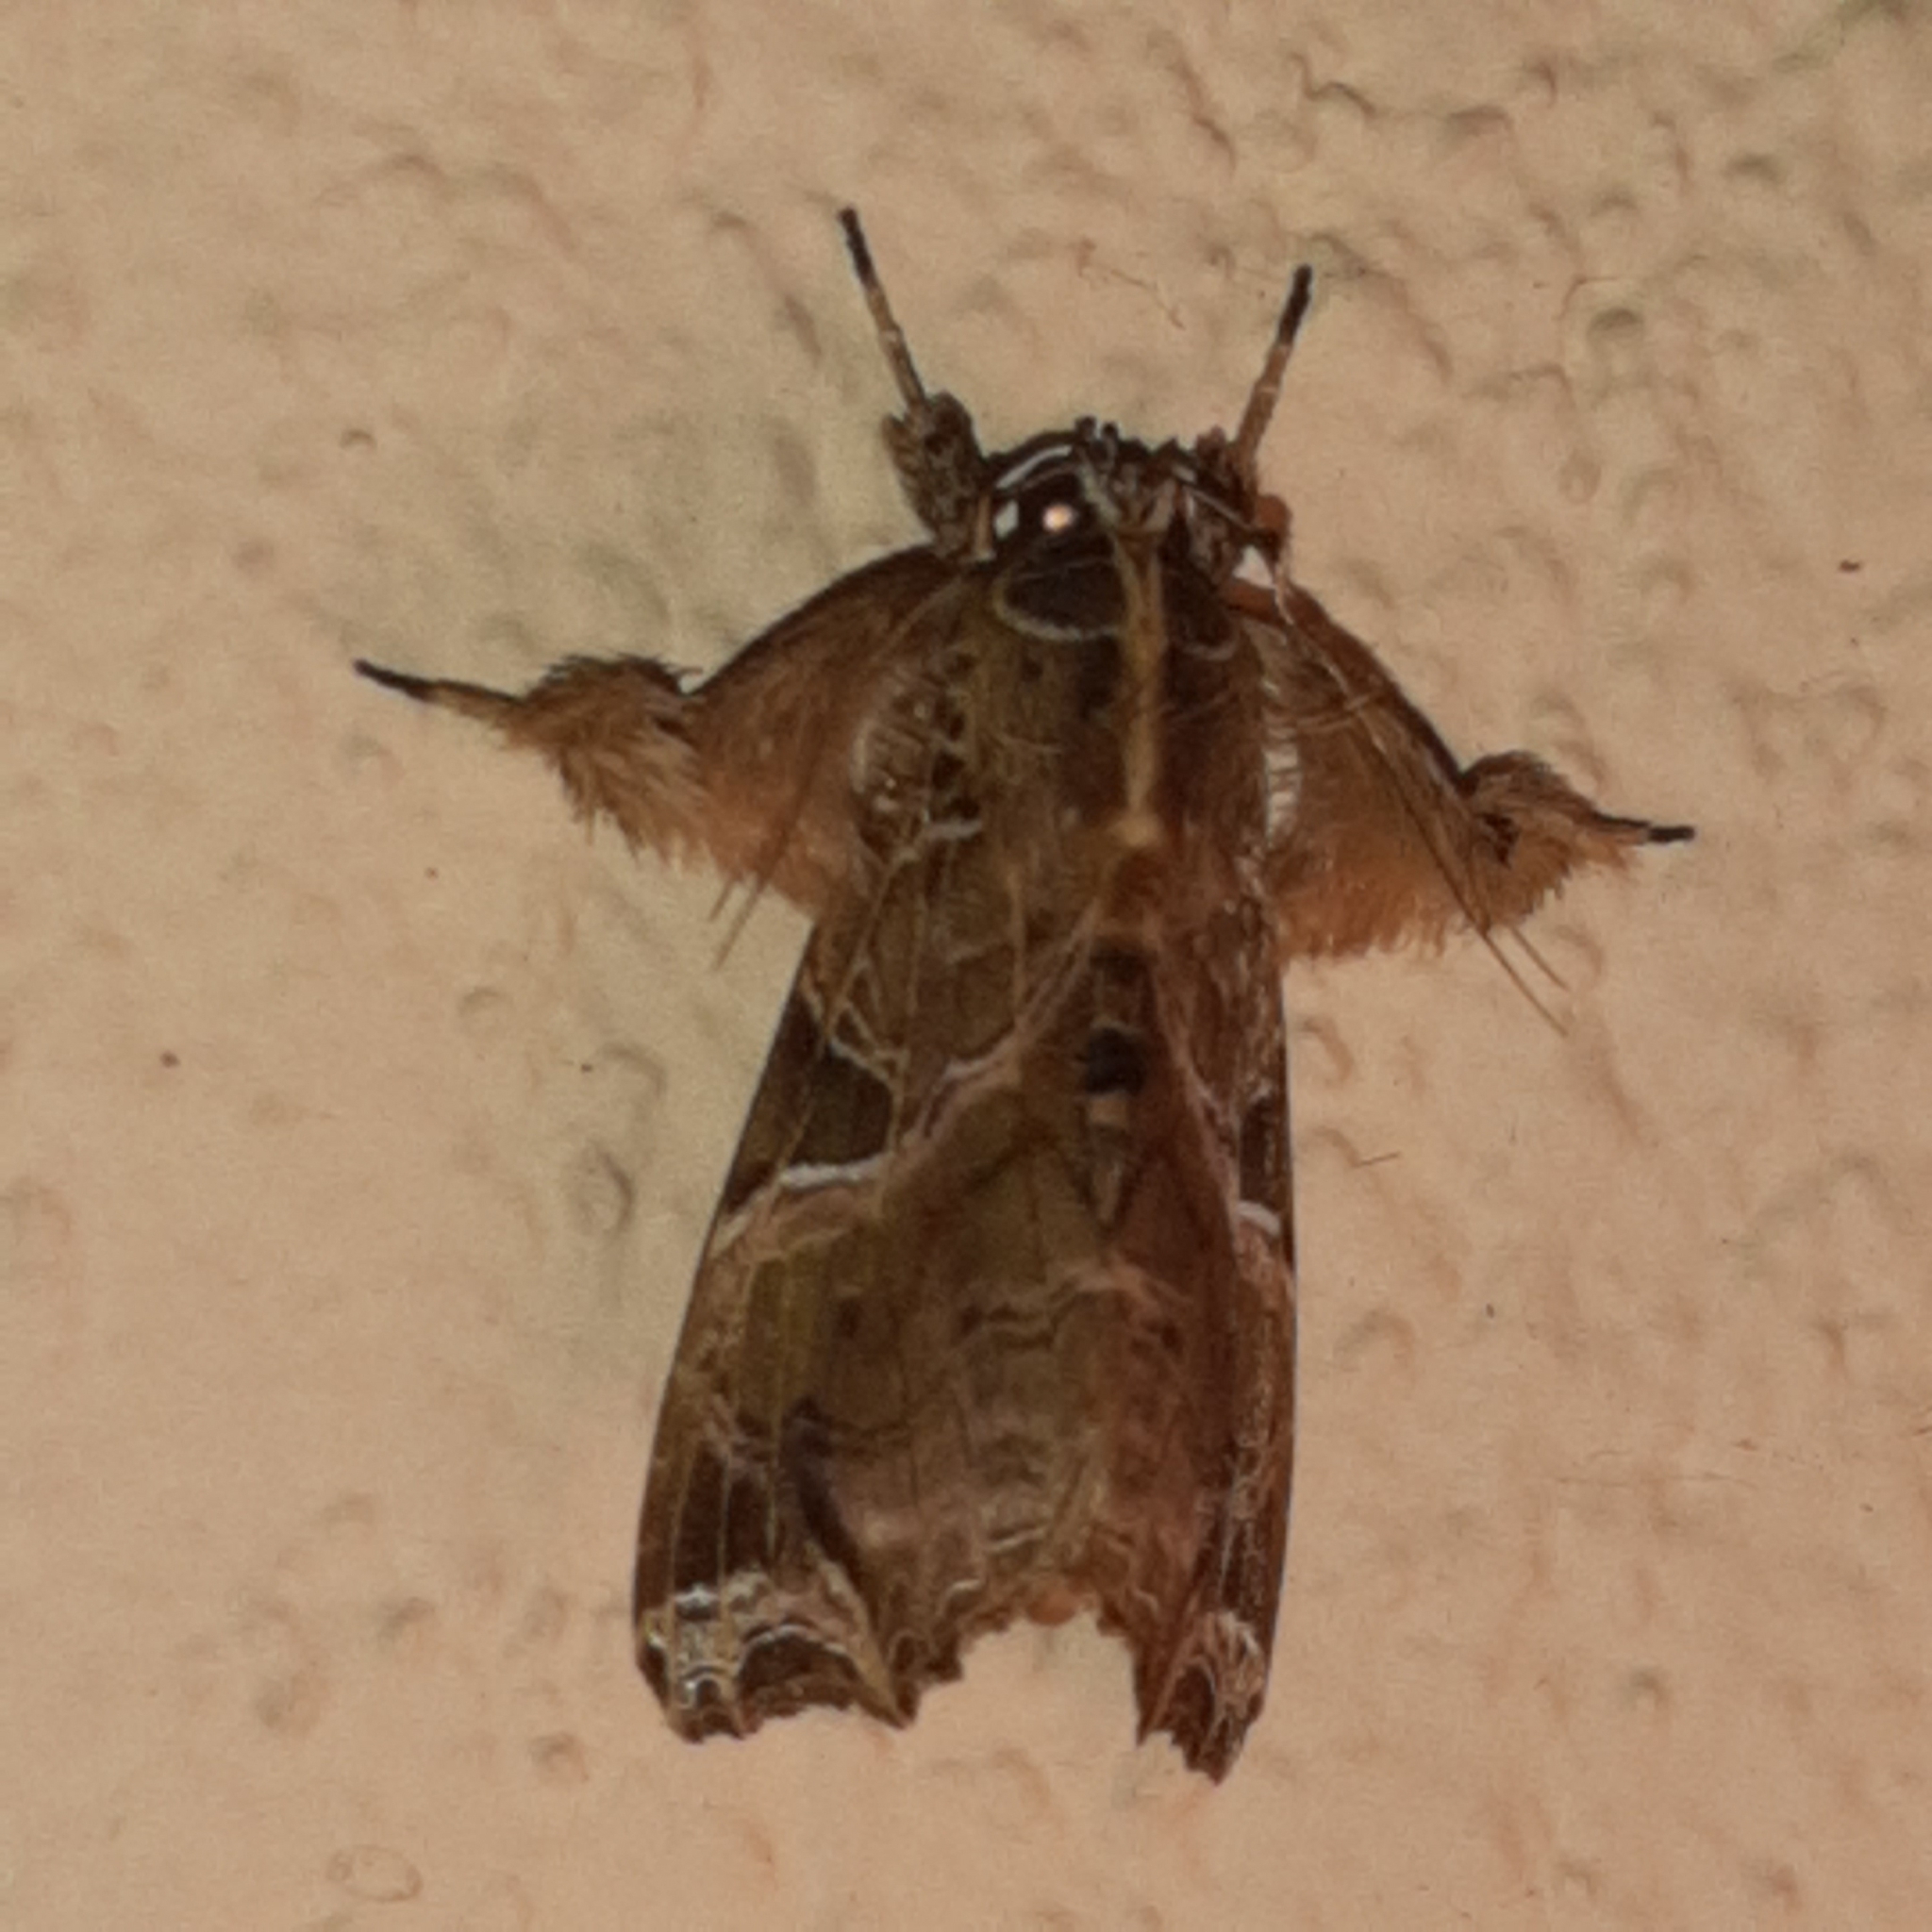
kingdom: Animalia
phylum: Arthropoda
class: Insecta
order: Lepidoptera
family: Noctuidae
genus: Callopistria
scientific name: Callopistria floridensis
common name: Florida fern moth
